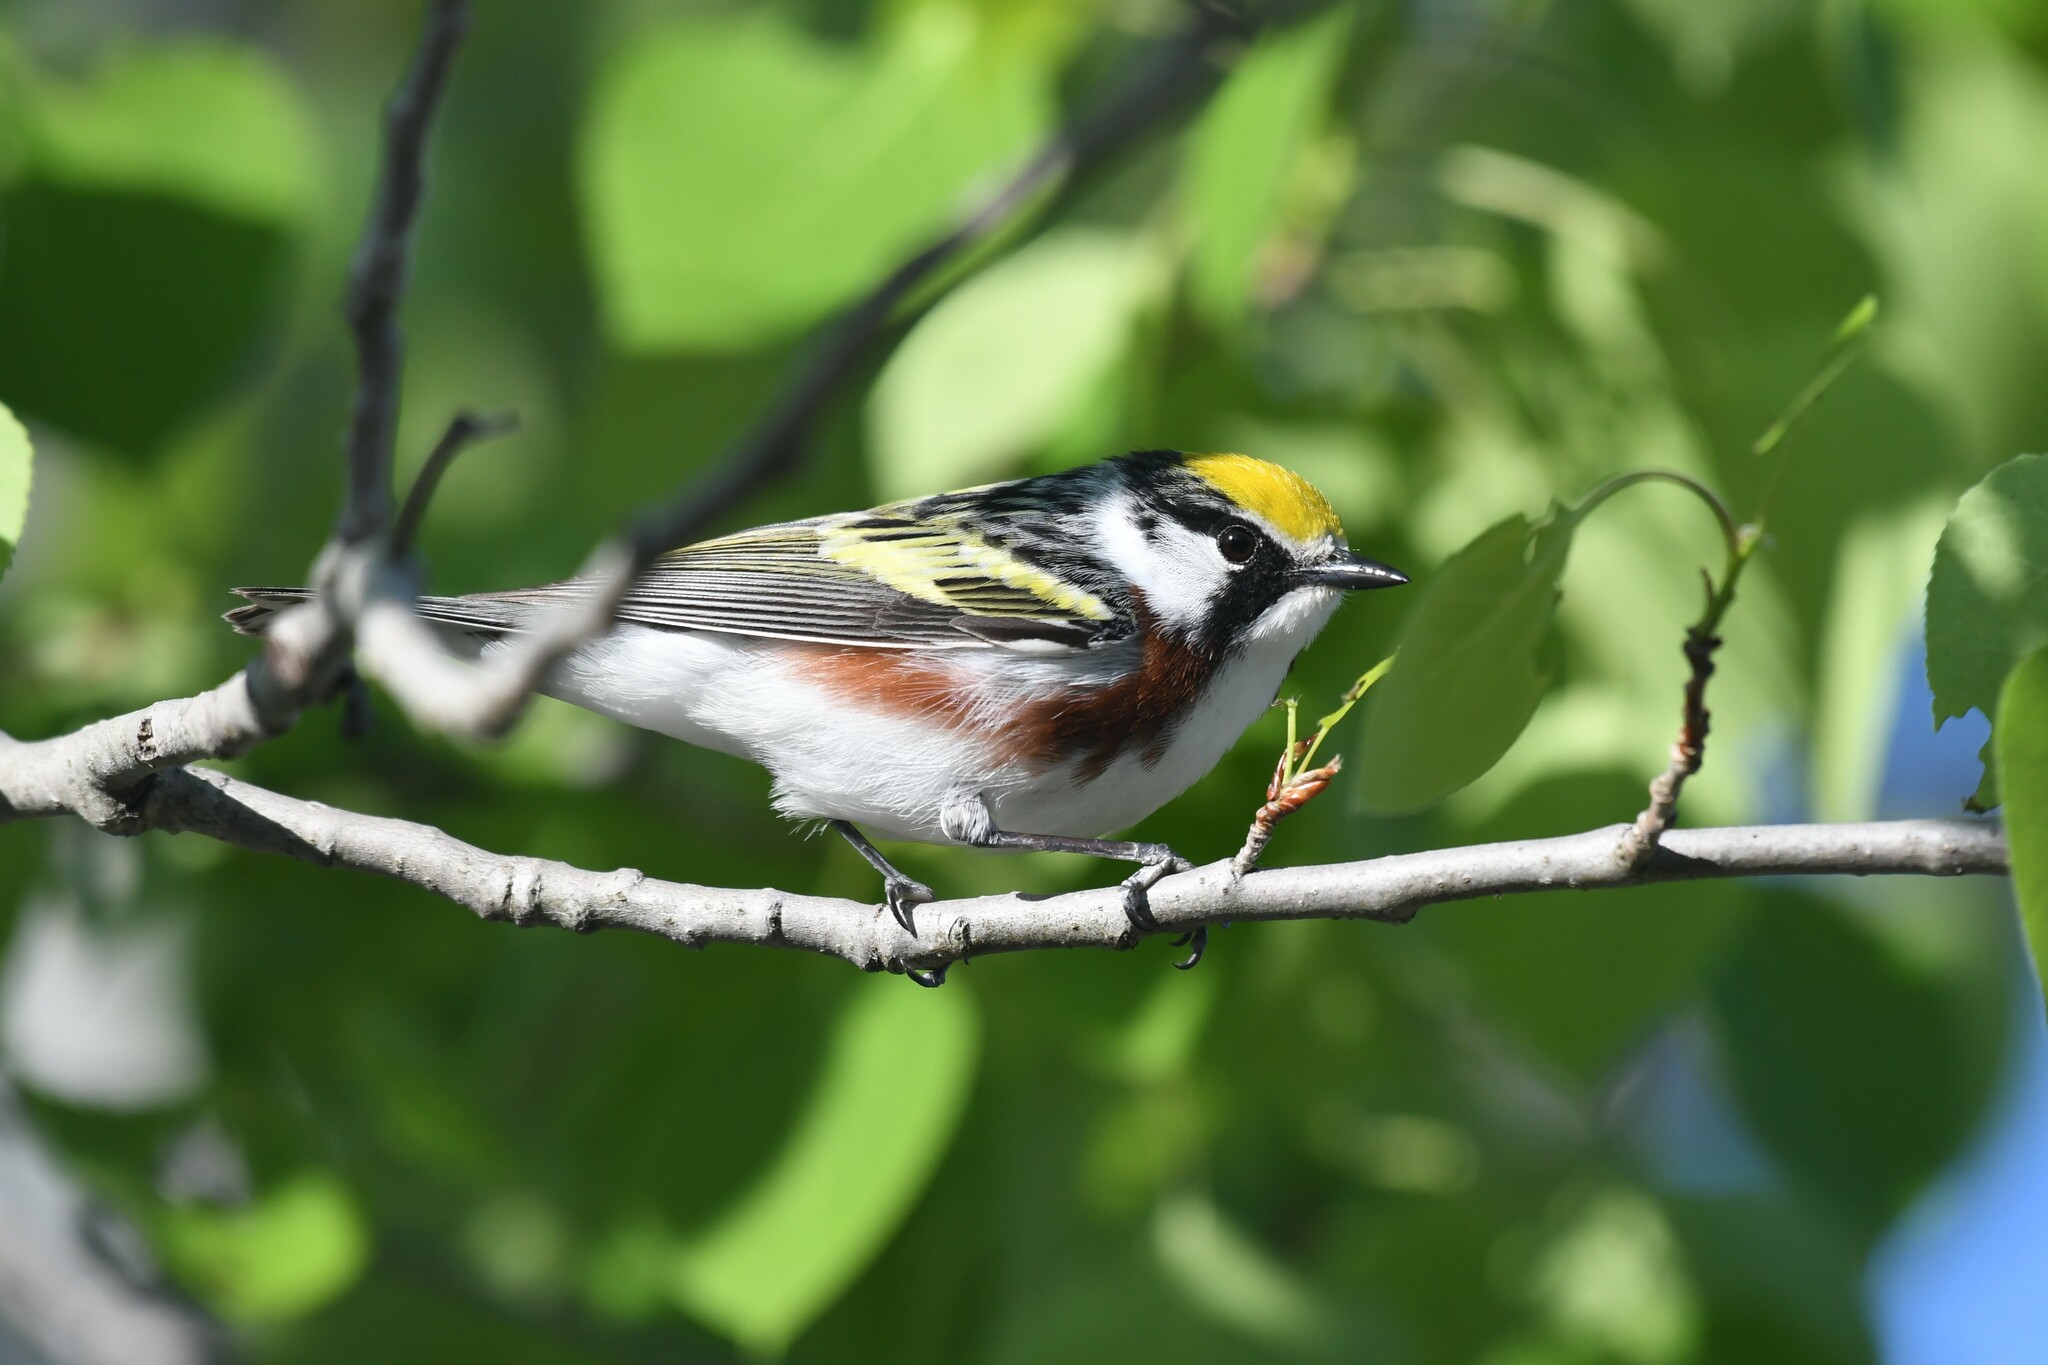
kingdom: Animalia
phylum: Chordata
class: Aves
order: Passeriformes
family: Parulidae
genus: Setophaga
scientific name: Setophaga pensylvanica
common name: Chestnut-sided warbler
